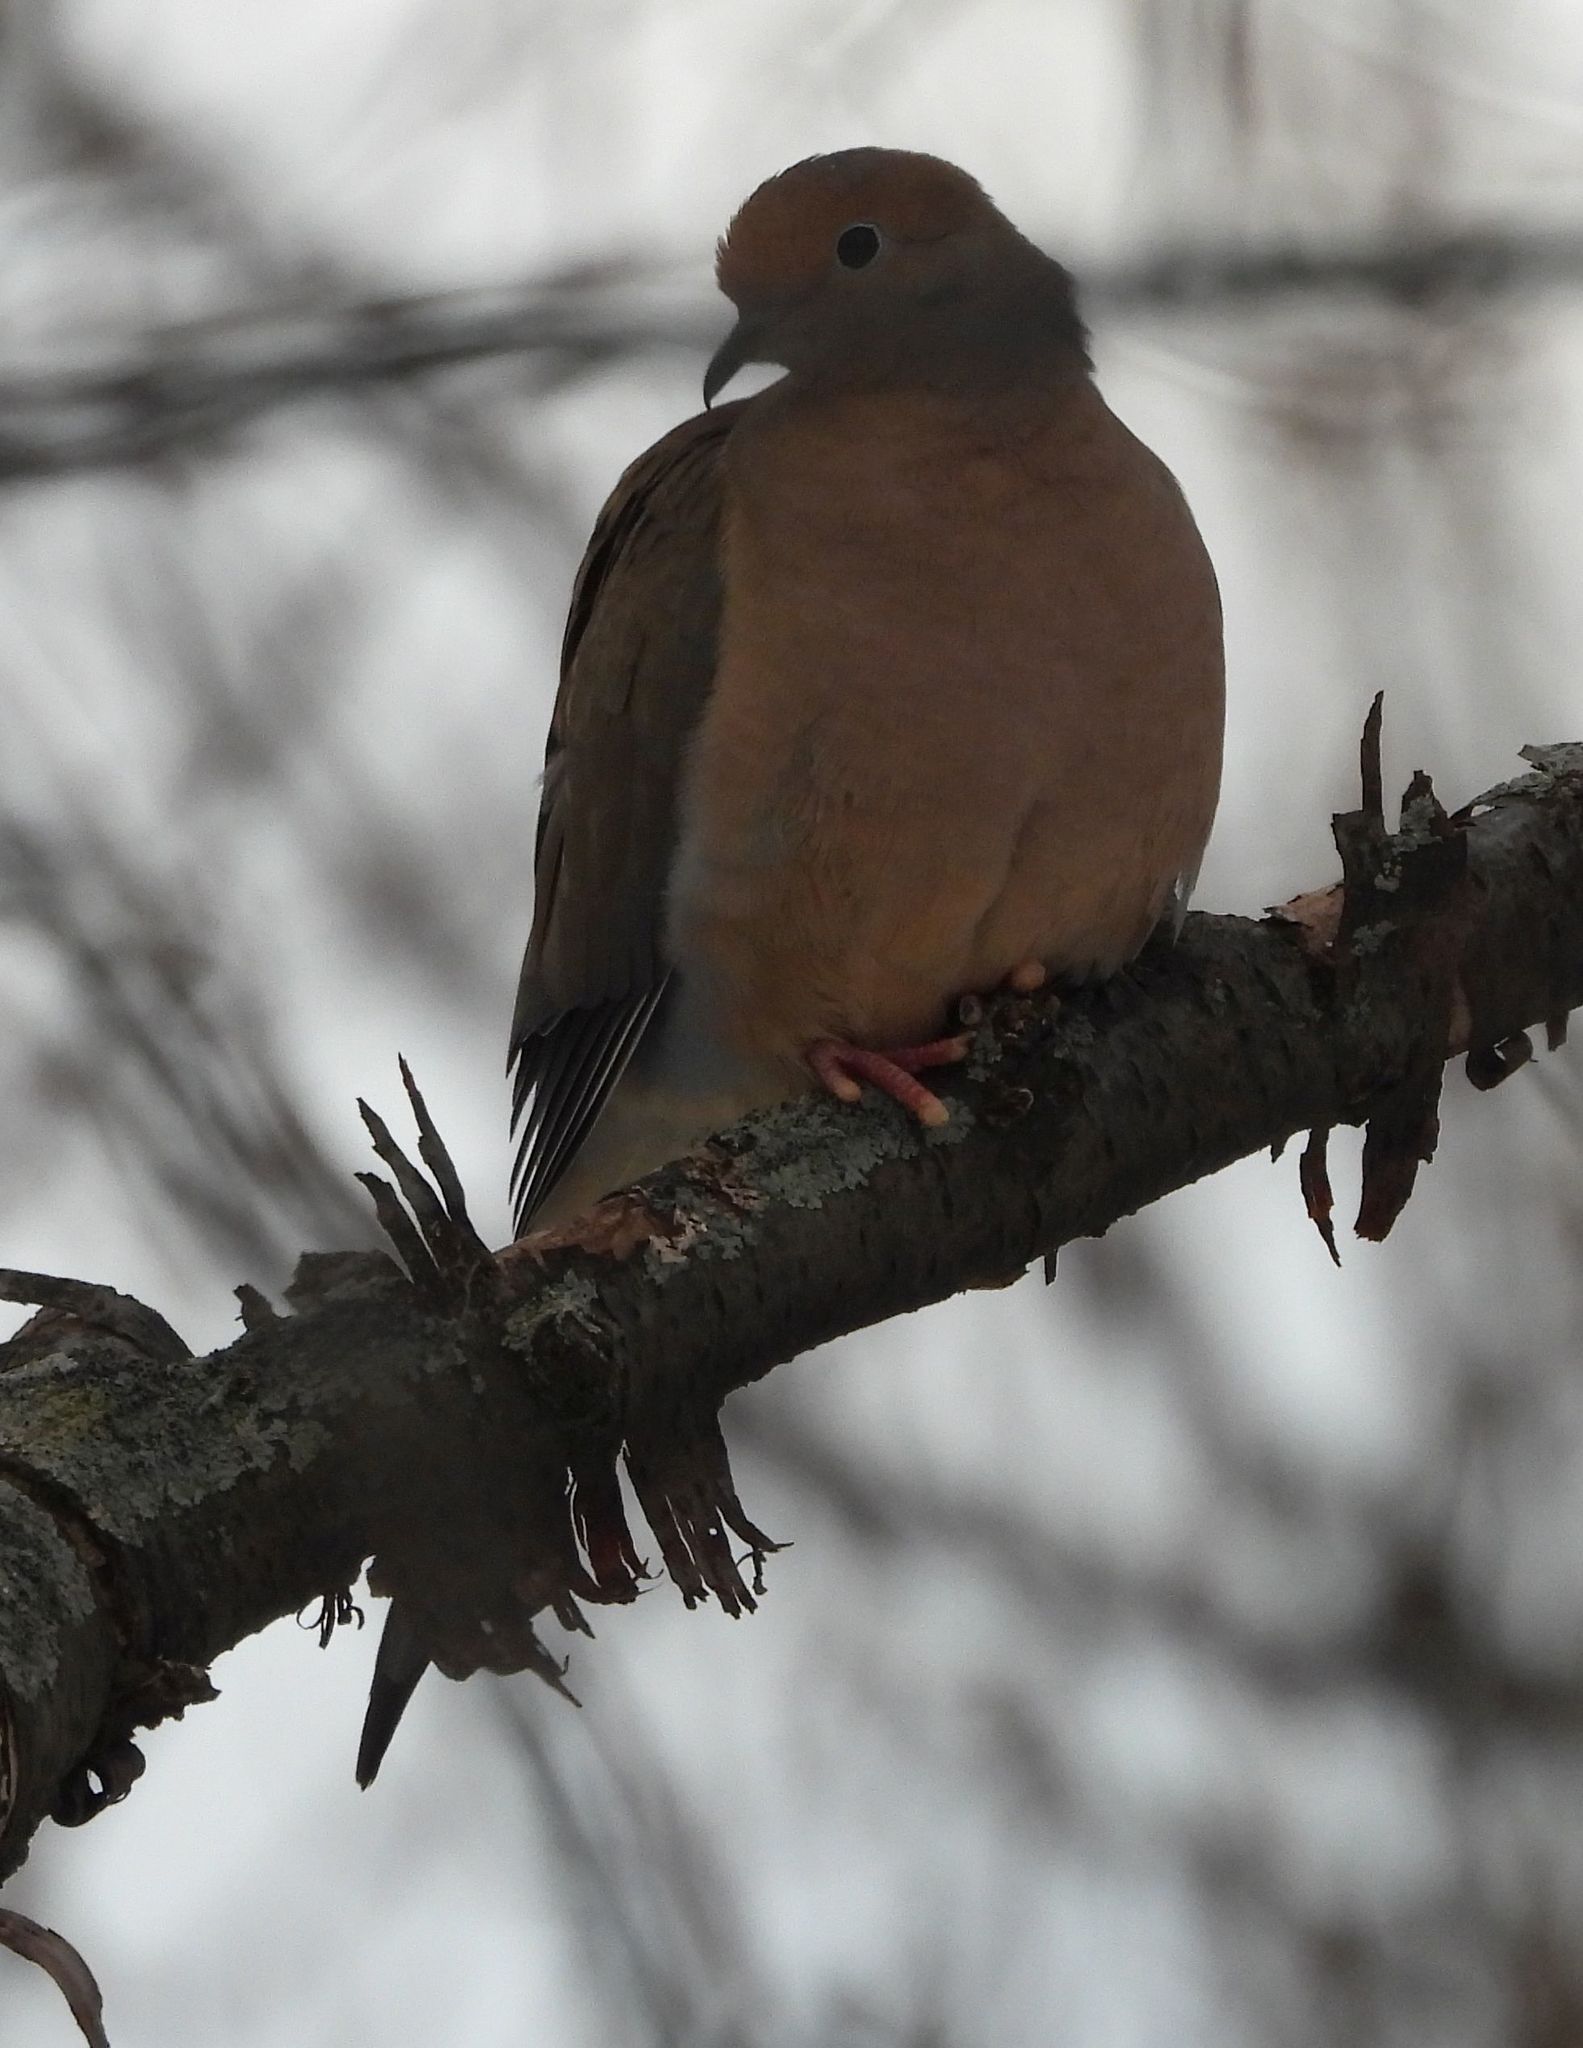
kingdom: Animalia
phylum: Chordata
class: Aves
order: Columbiformes
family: Columbidae
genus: Zenaida
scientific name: Zenaida macroura
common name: Mourning dove
